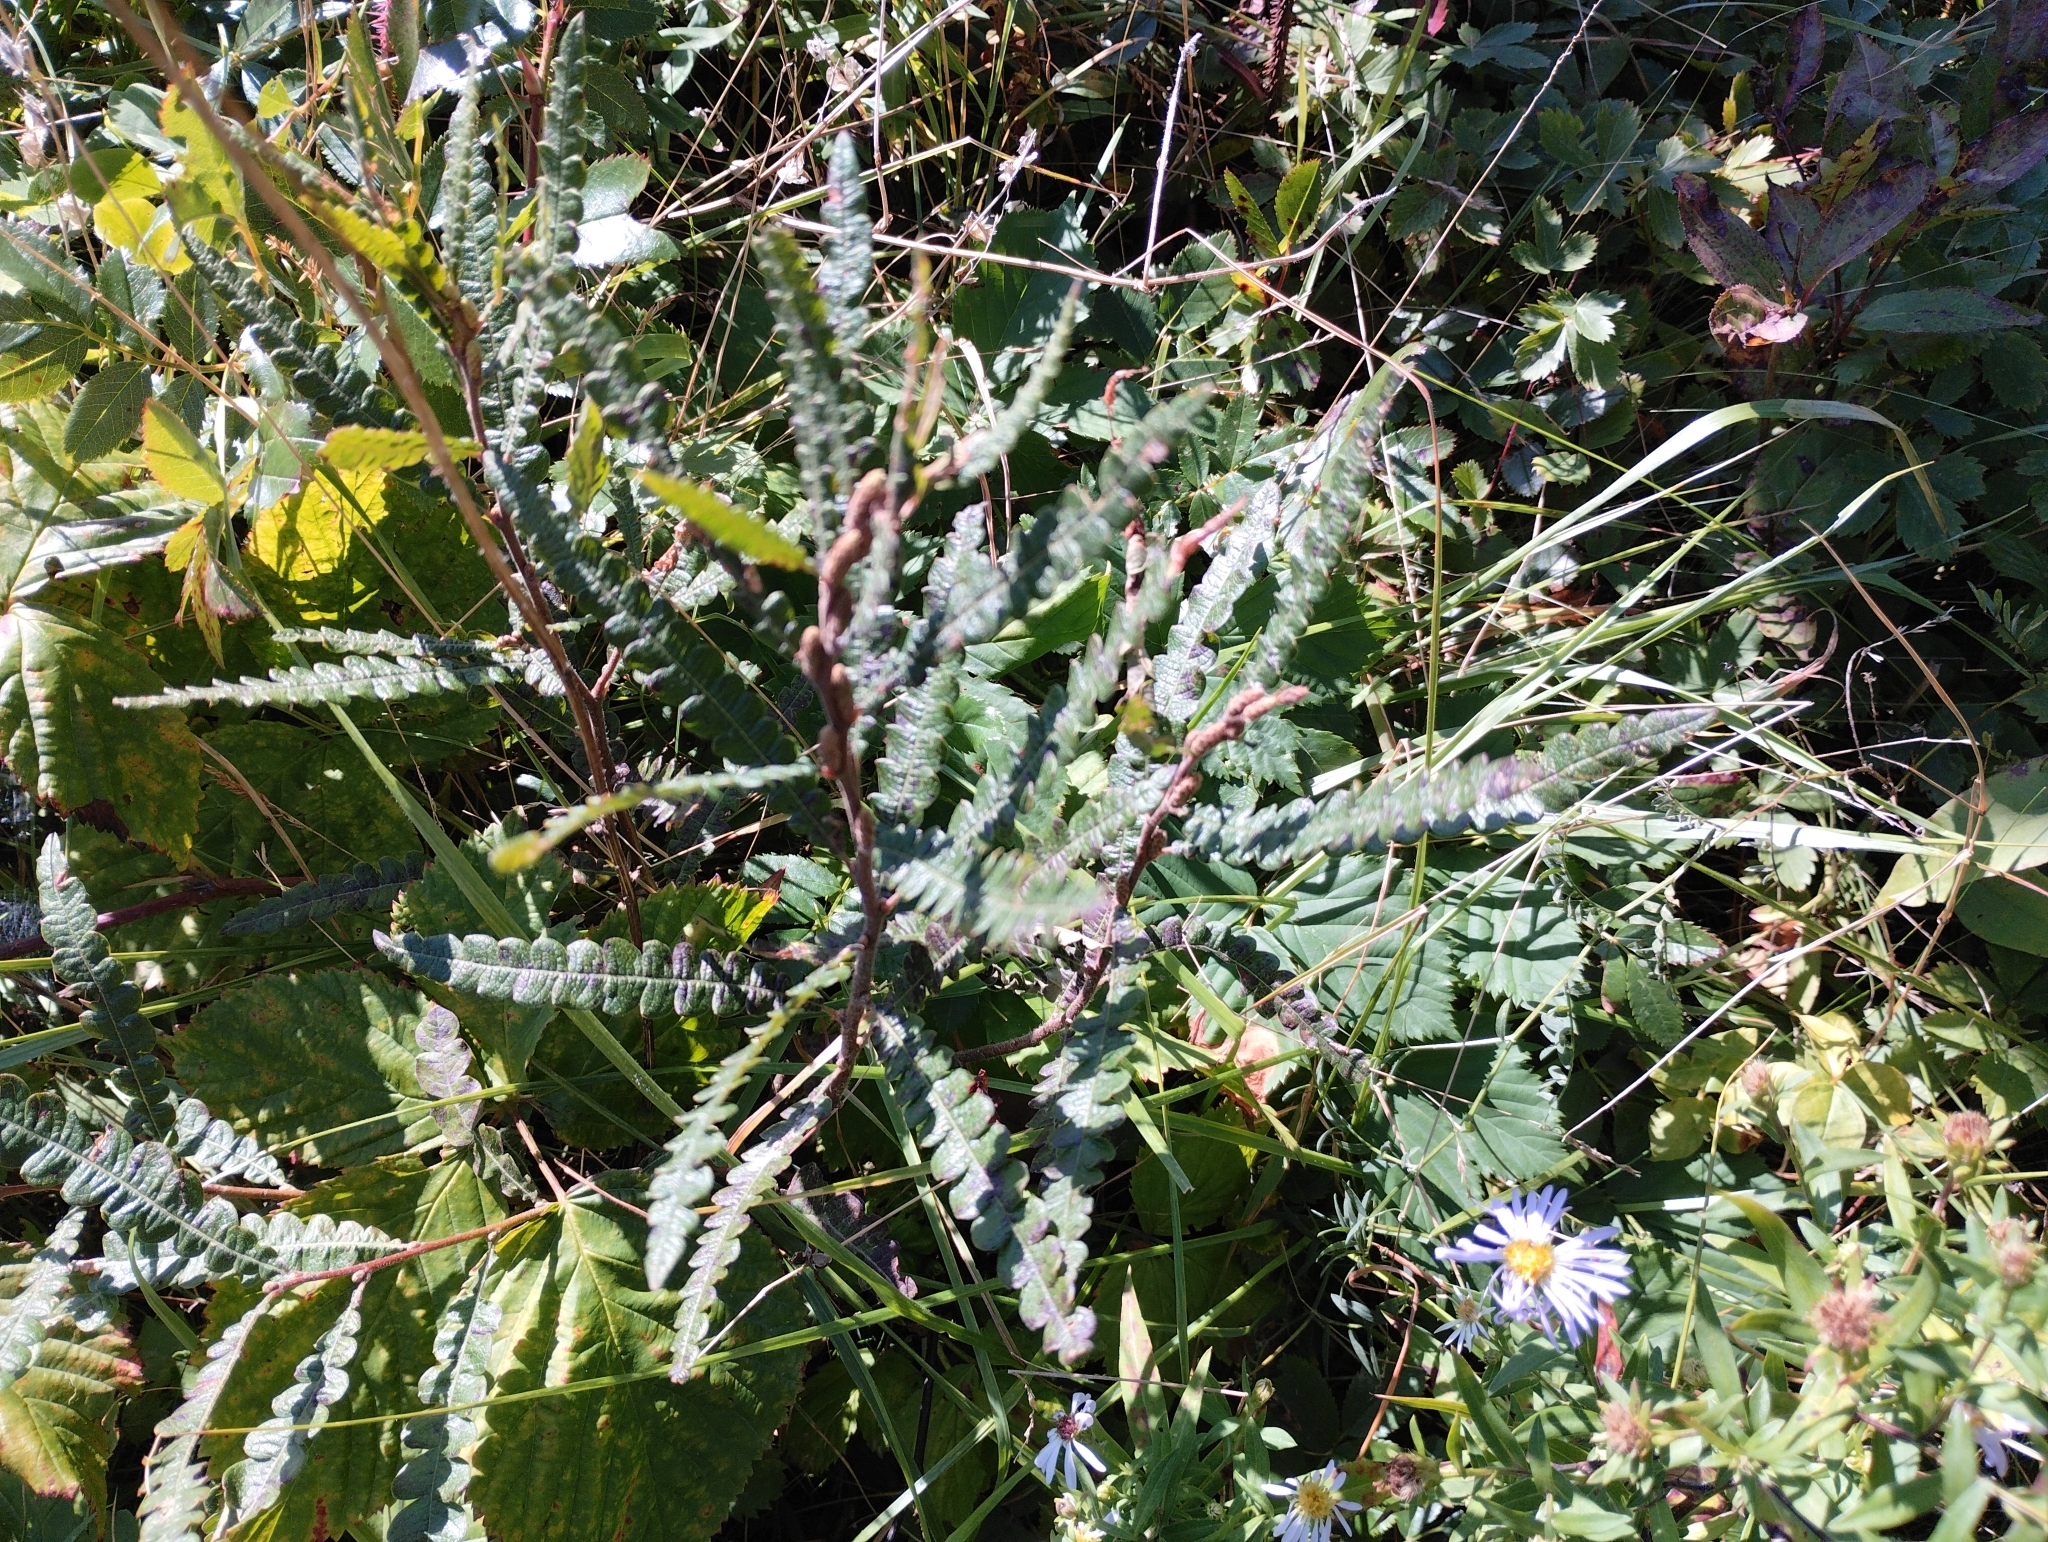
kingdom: Plantae
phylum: Tracheophyta
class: Magnoliopsida
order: Fagales
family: Myricaceae
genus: Comptonia
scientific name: Comptonia peregrina
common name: Sweet-fern
